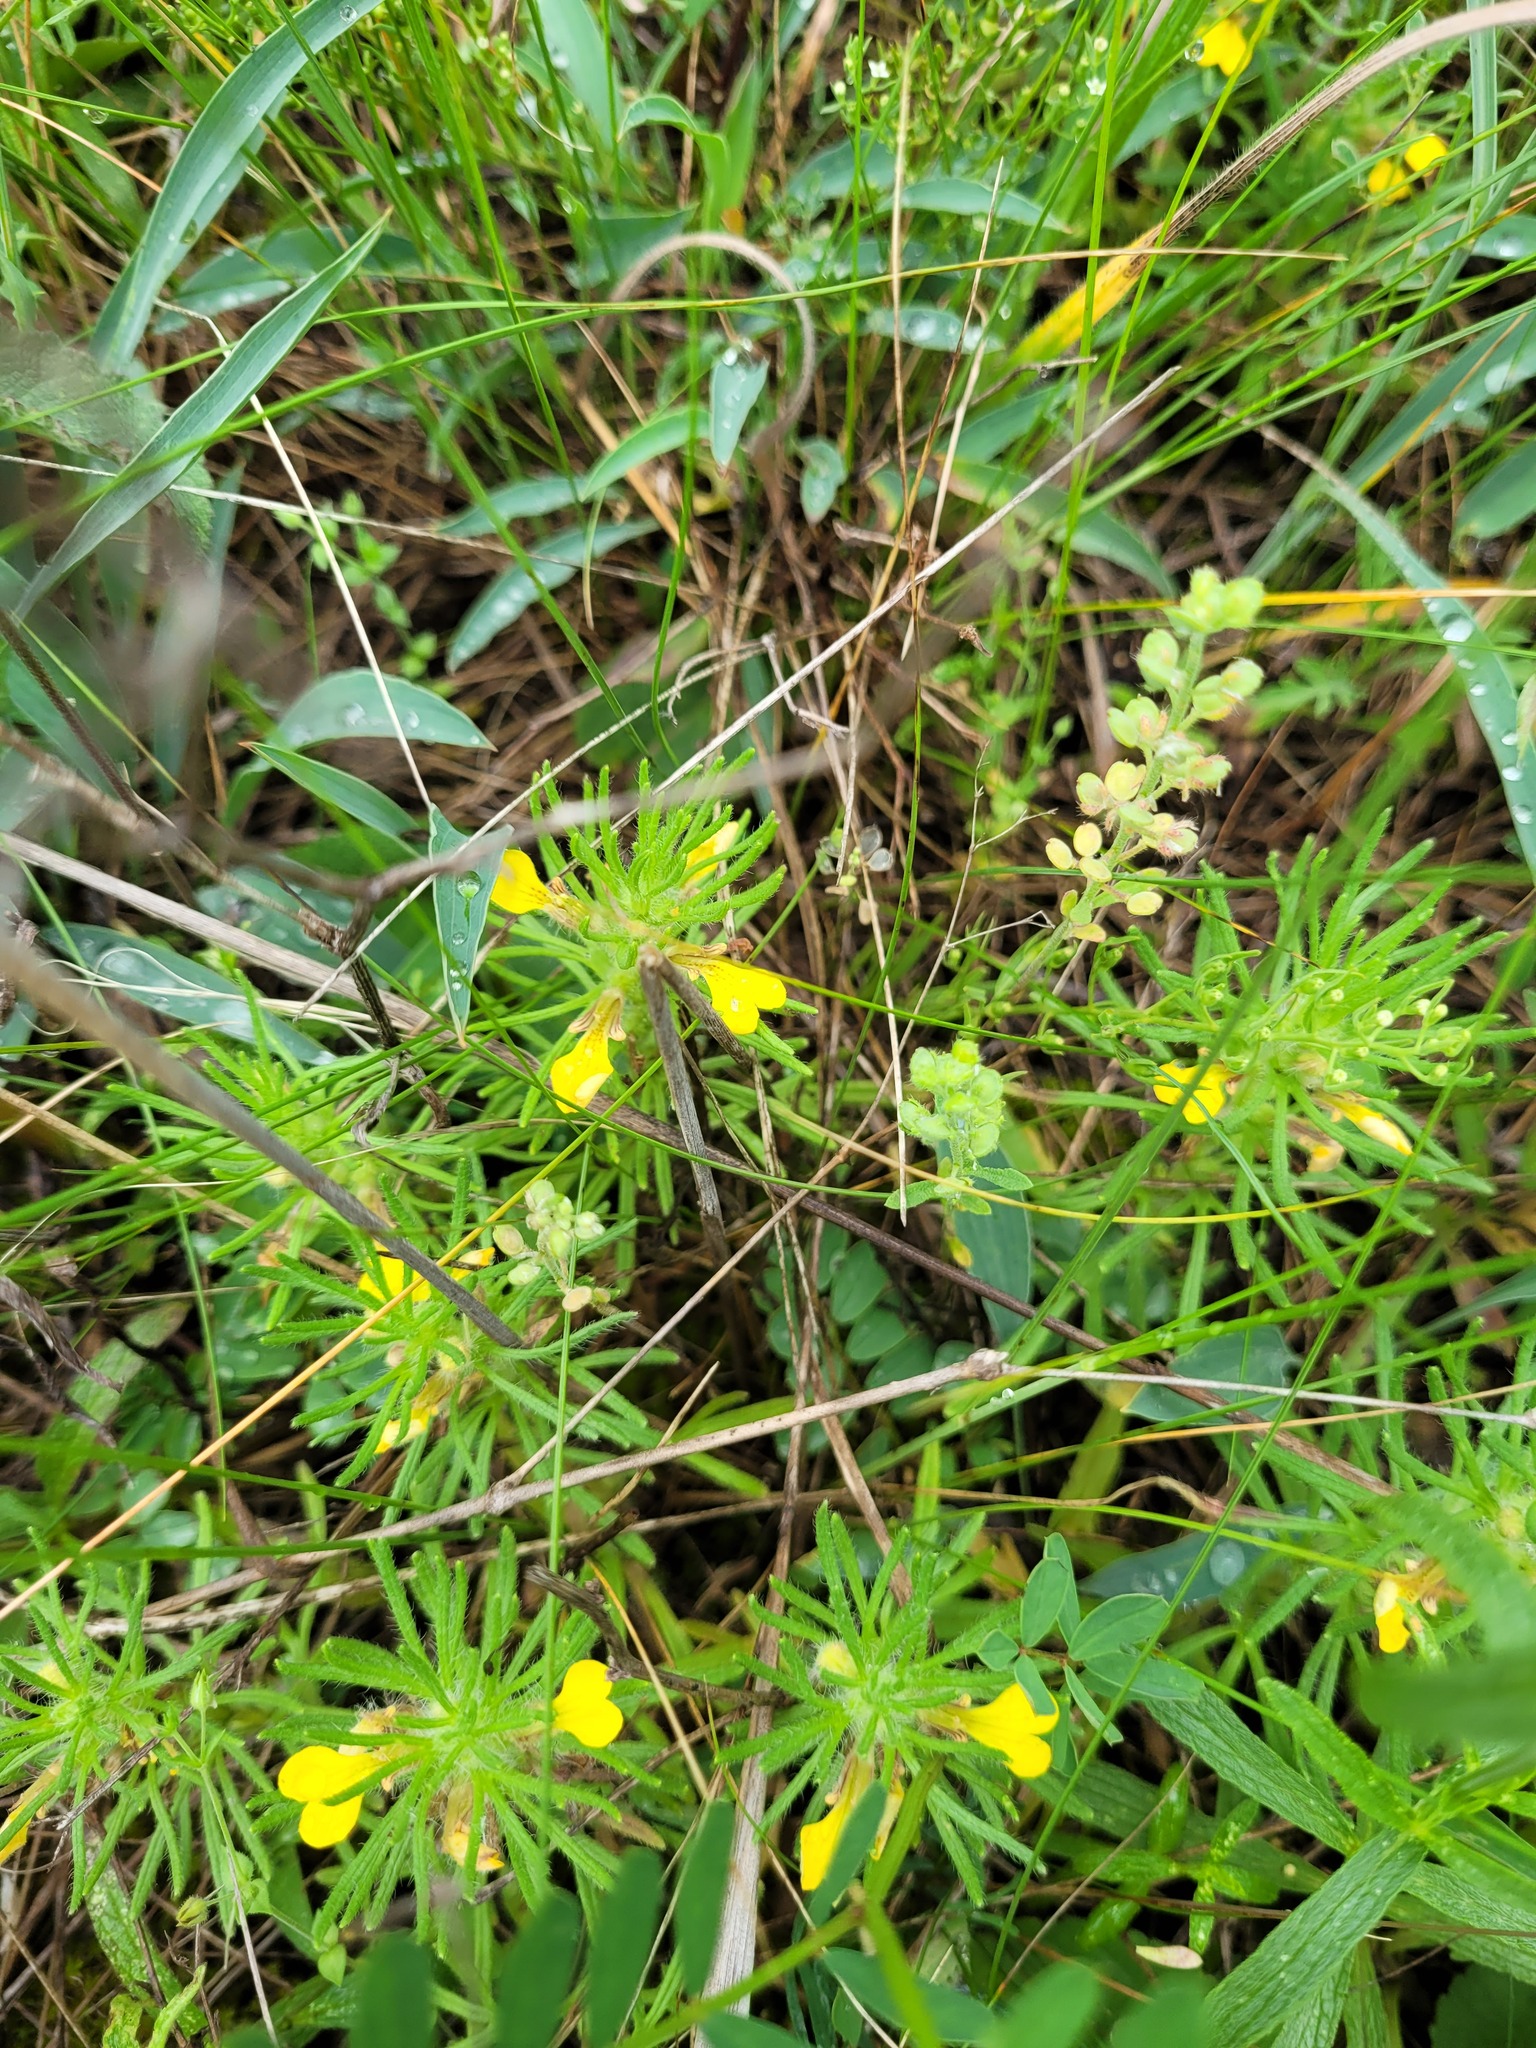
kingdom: Plantae
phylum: Tracheophyta
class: Magnoliopsida
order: Lamiales
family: Lamiaceae
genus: Ajuga
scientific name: Ajuga chamaepitys
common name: Ground-pine
